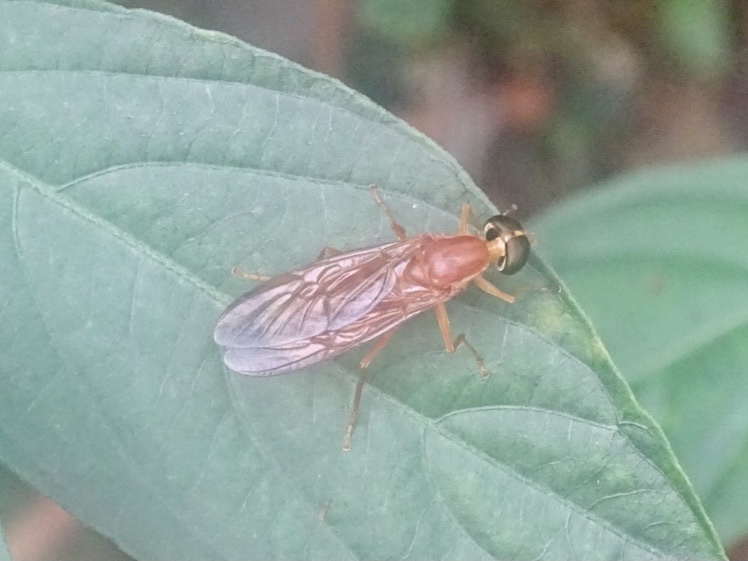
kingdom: Animalia
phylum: Arthropoda
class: Insecta
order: Diptera
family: Stratiomyidae
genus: Ptecticus
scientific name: Ptecticus aurifer
